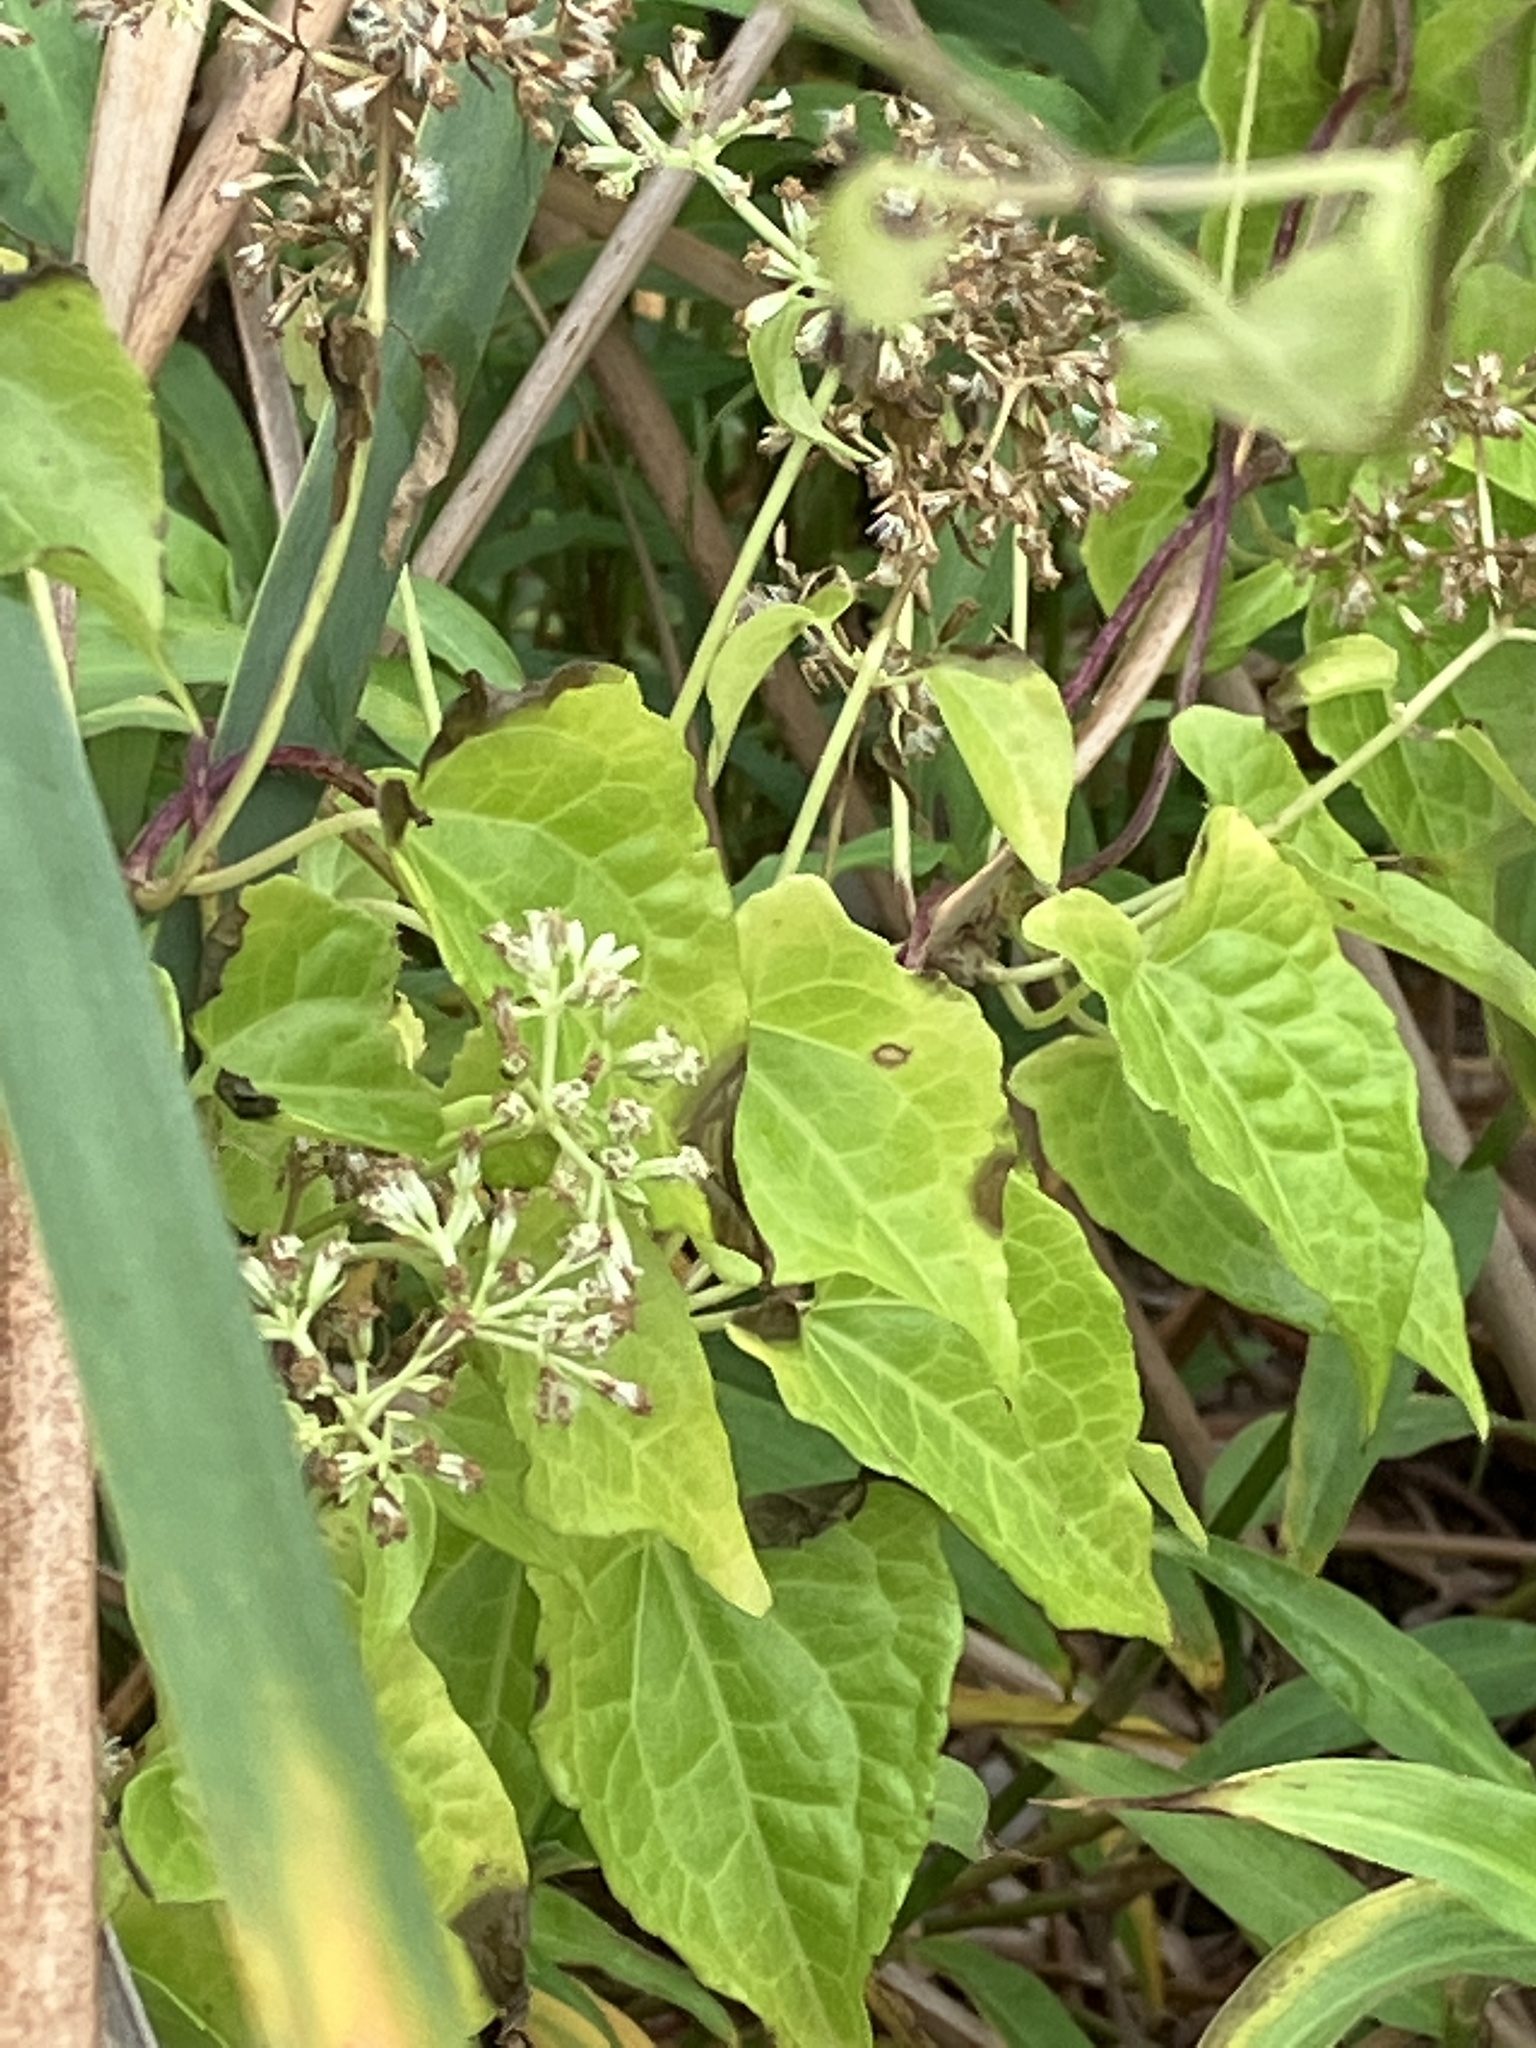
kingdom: Plantae
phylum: Tracheophyta
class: Magnoliopsida
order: Asterales
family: Asteraceae
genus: Mikania
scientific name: Mikania micrantha
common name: Mile-a-minute
